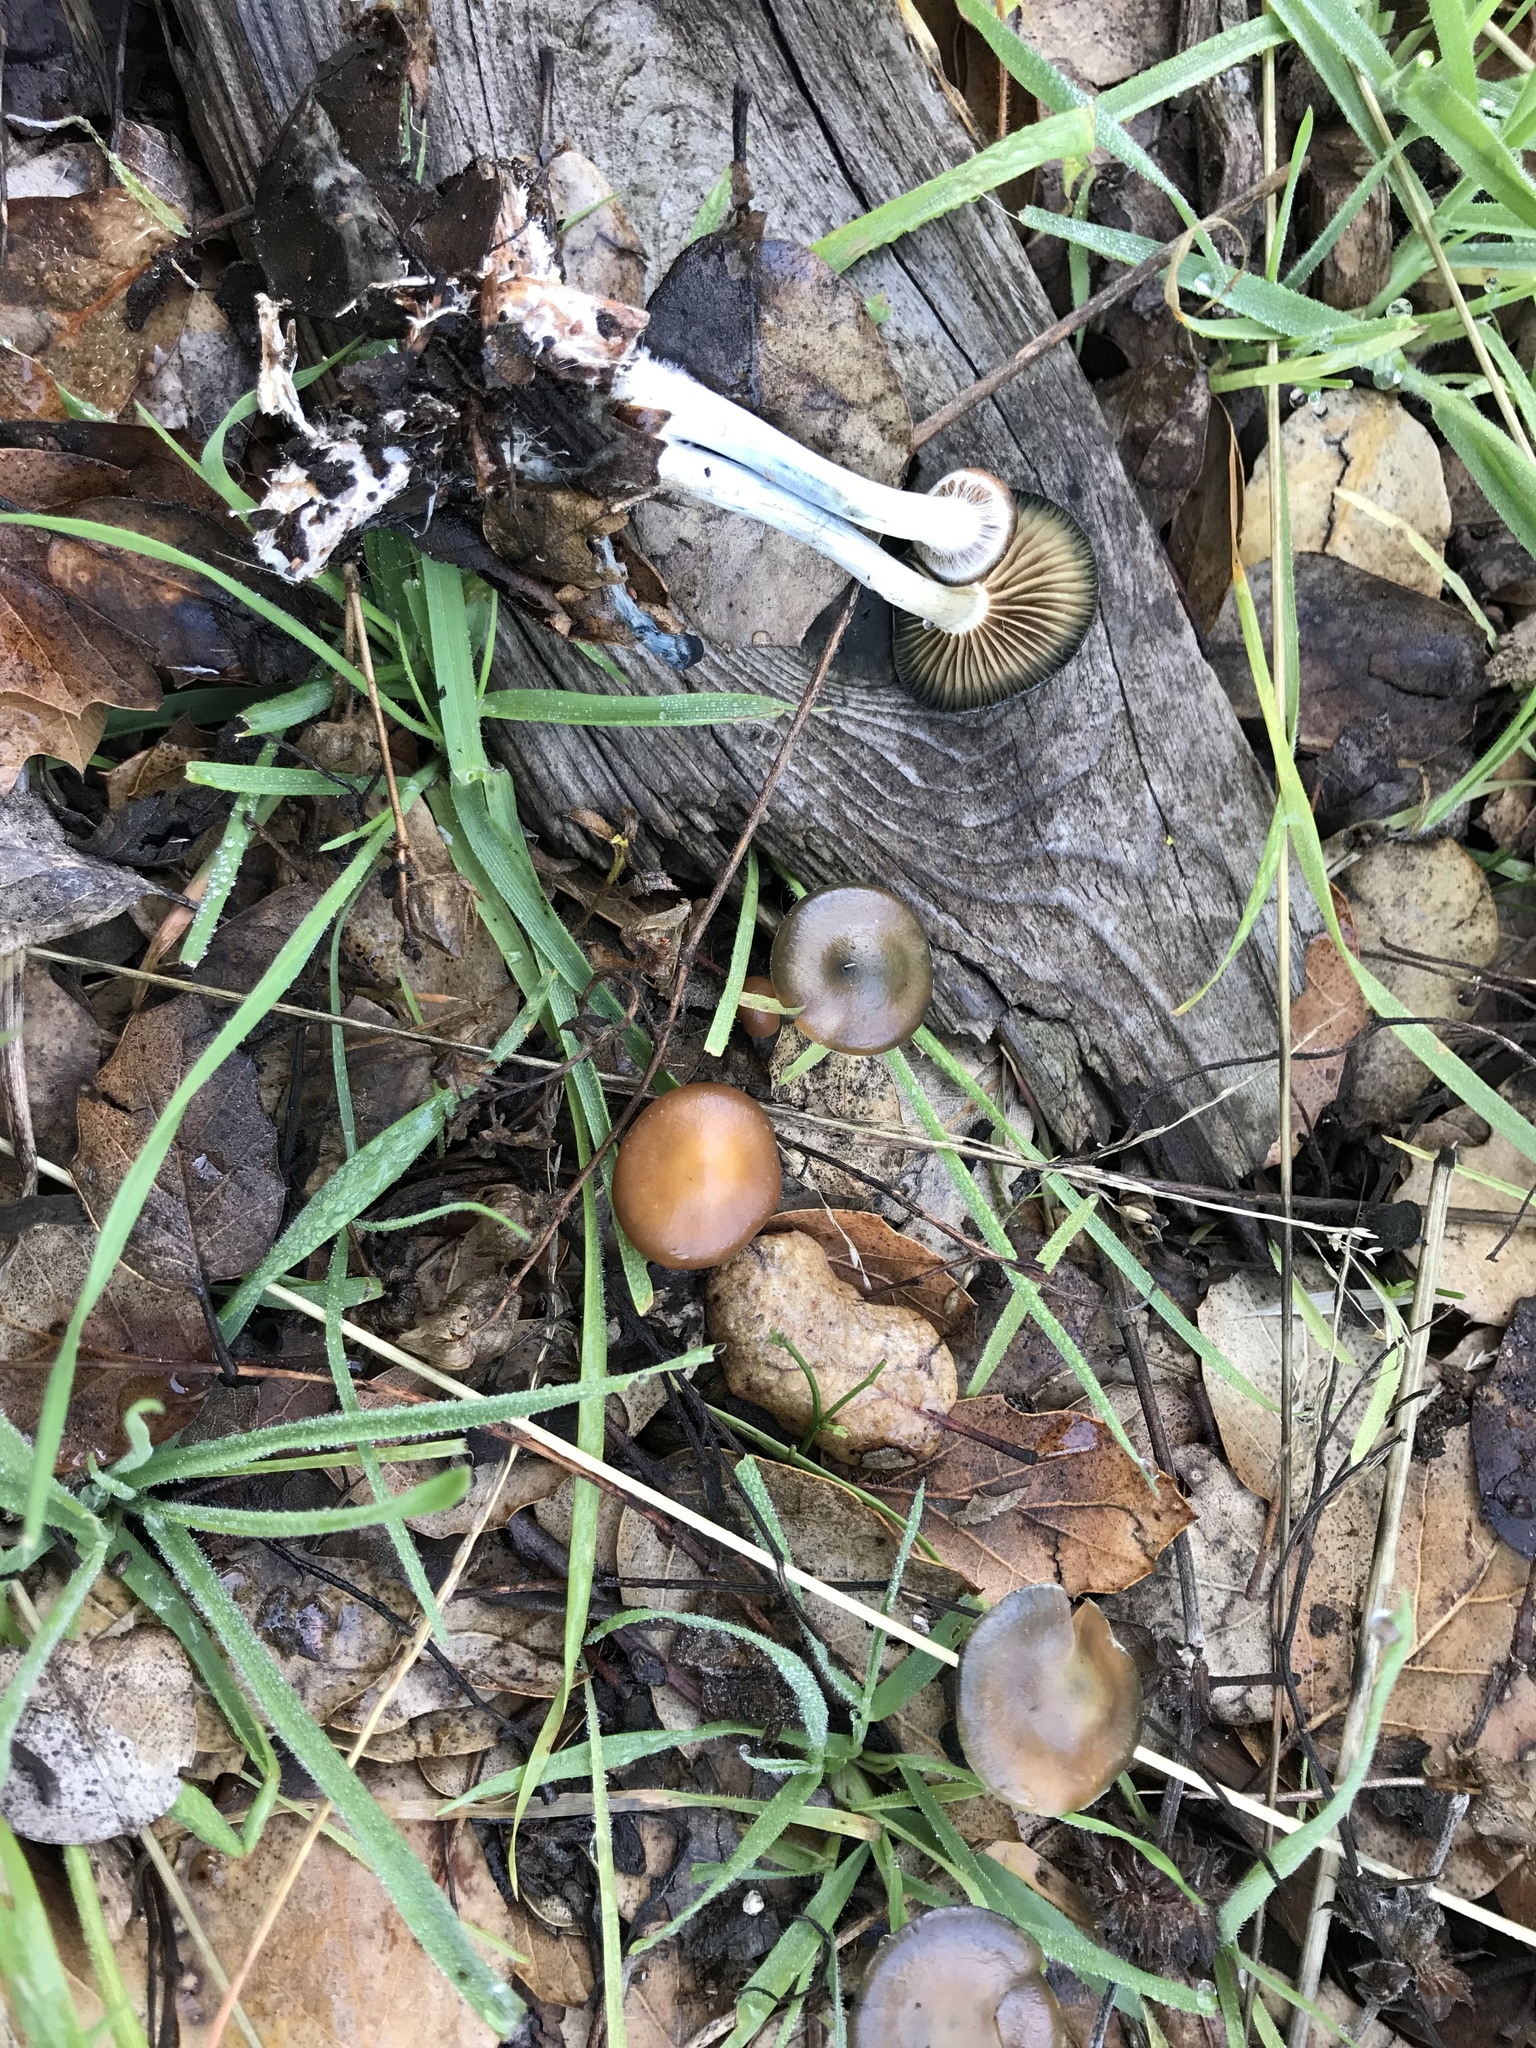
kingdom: Fungi
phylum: Basidiomycota
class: Agaricomycetes
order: Agaricales
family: Hymenogastraceae
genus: Psilocybe
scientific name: Psilocybe cyanescens
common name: Blueleg brownie
